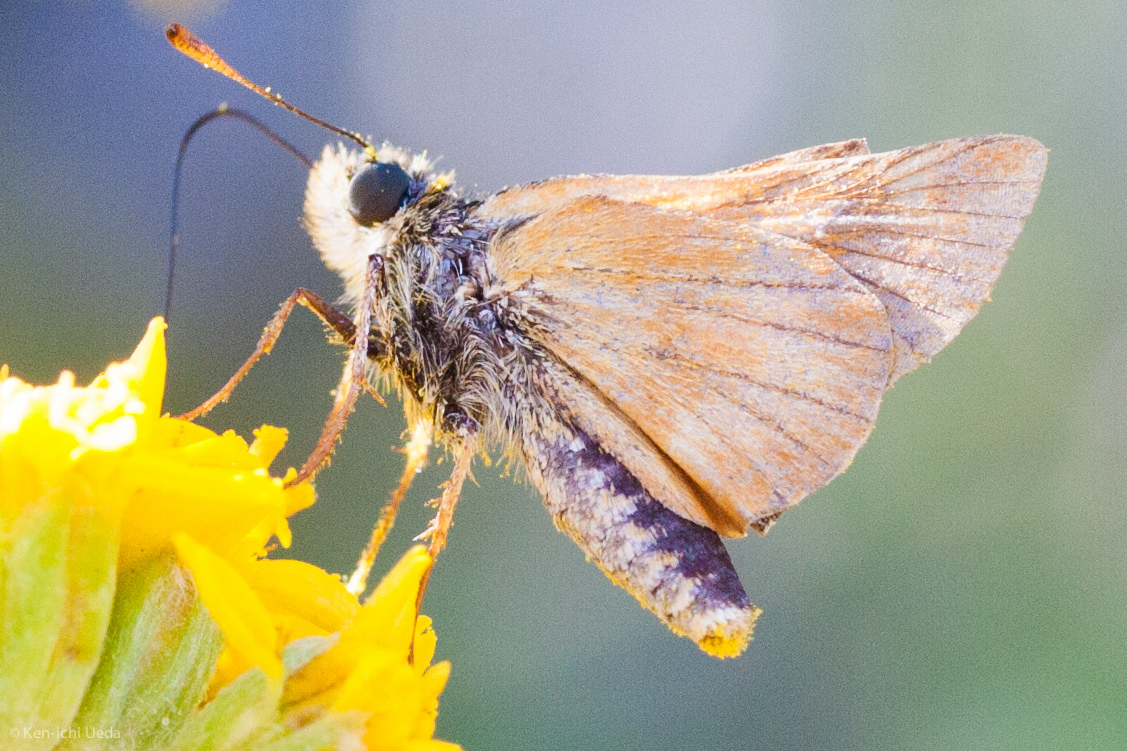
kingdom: Animalia
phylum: Arthropoda
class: Insecta
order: Lepidoptera
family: Hesperiidae
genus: Ochlodes
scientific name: Ochlodes agricola
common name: Rural skipper
